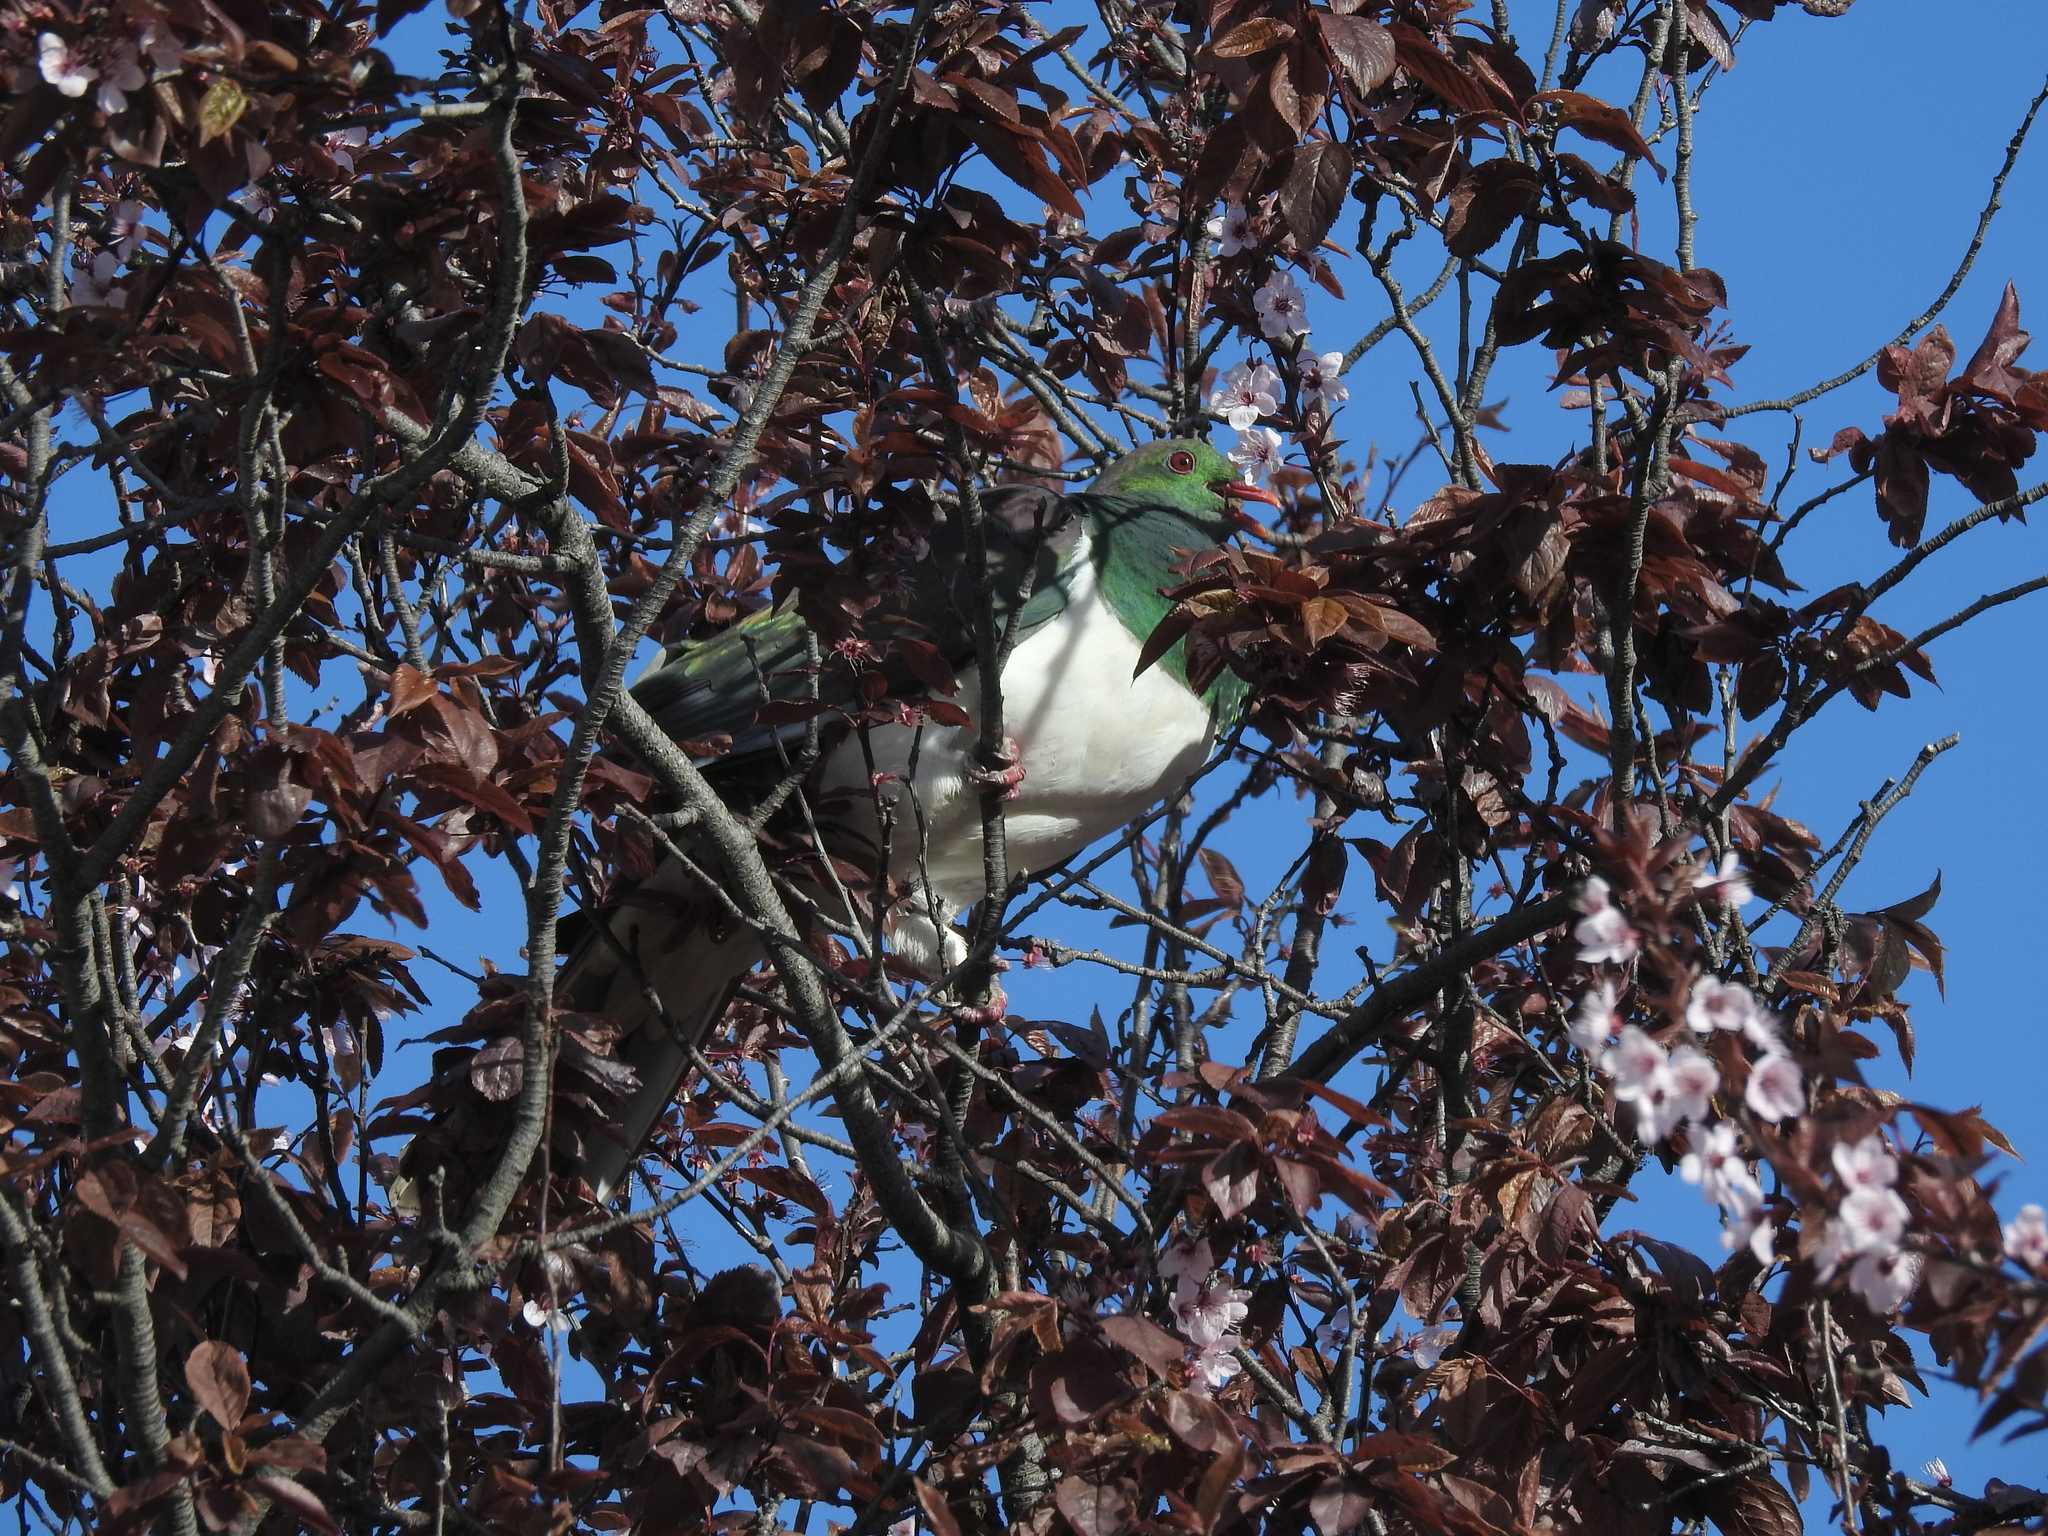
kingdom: Animalia
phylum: Chordata
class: Aves
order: Columbiformes
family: Columbidae
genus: Hemiphaga
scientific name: Hemiphaga novaeseelandiae
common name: New zealand pigeon
